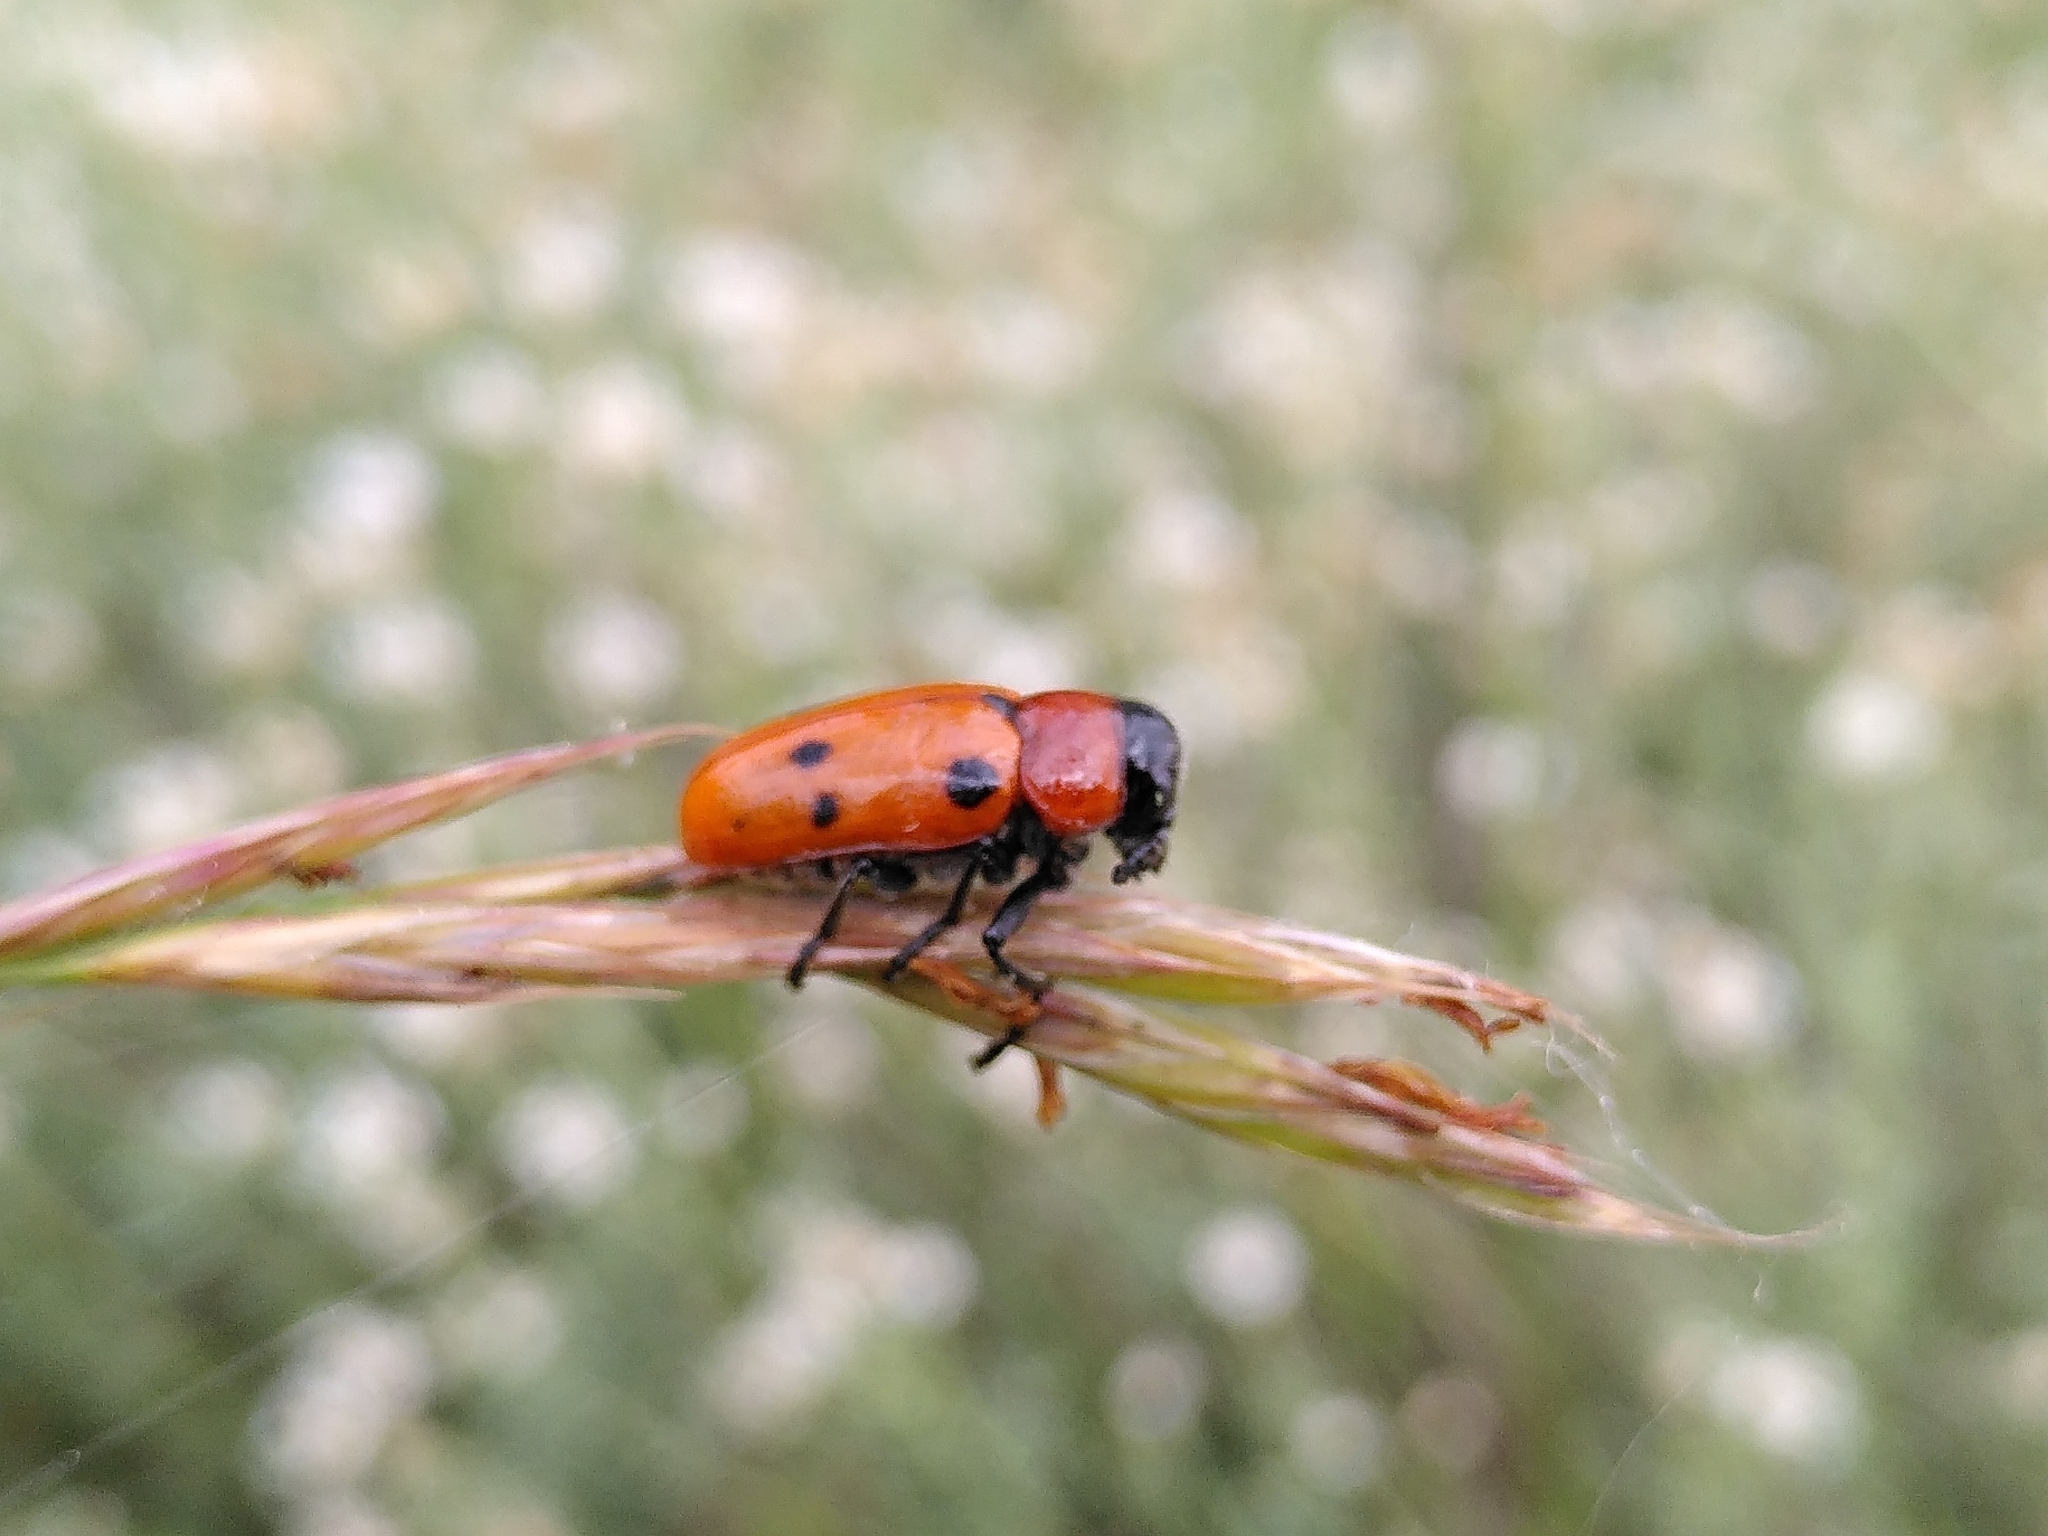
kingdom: Animalia
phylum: Arthropoda
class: Insecta
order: Coleoptera
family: Chrysomelidae
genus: Tituboea
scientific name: Tituboea sexmaculata
